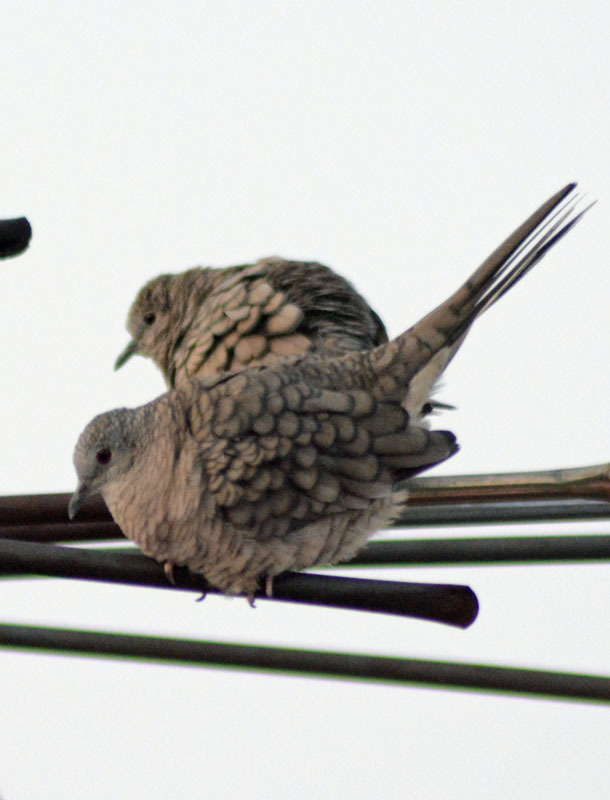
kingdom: Animalia
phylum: Chordata
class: Aves
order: Columbiformes
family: Columbidae
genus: Columbina
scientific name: Columbina inca
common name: Inca dove
